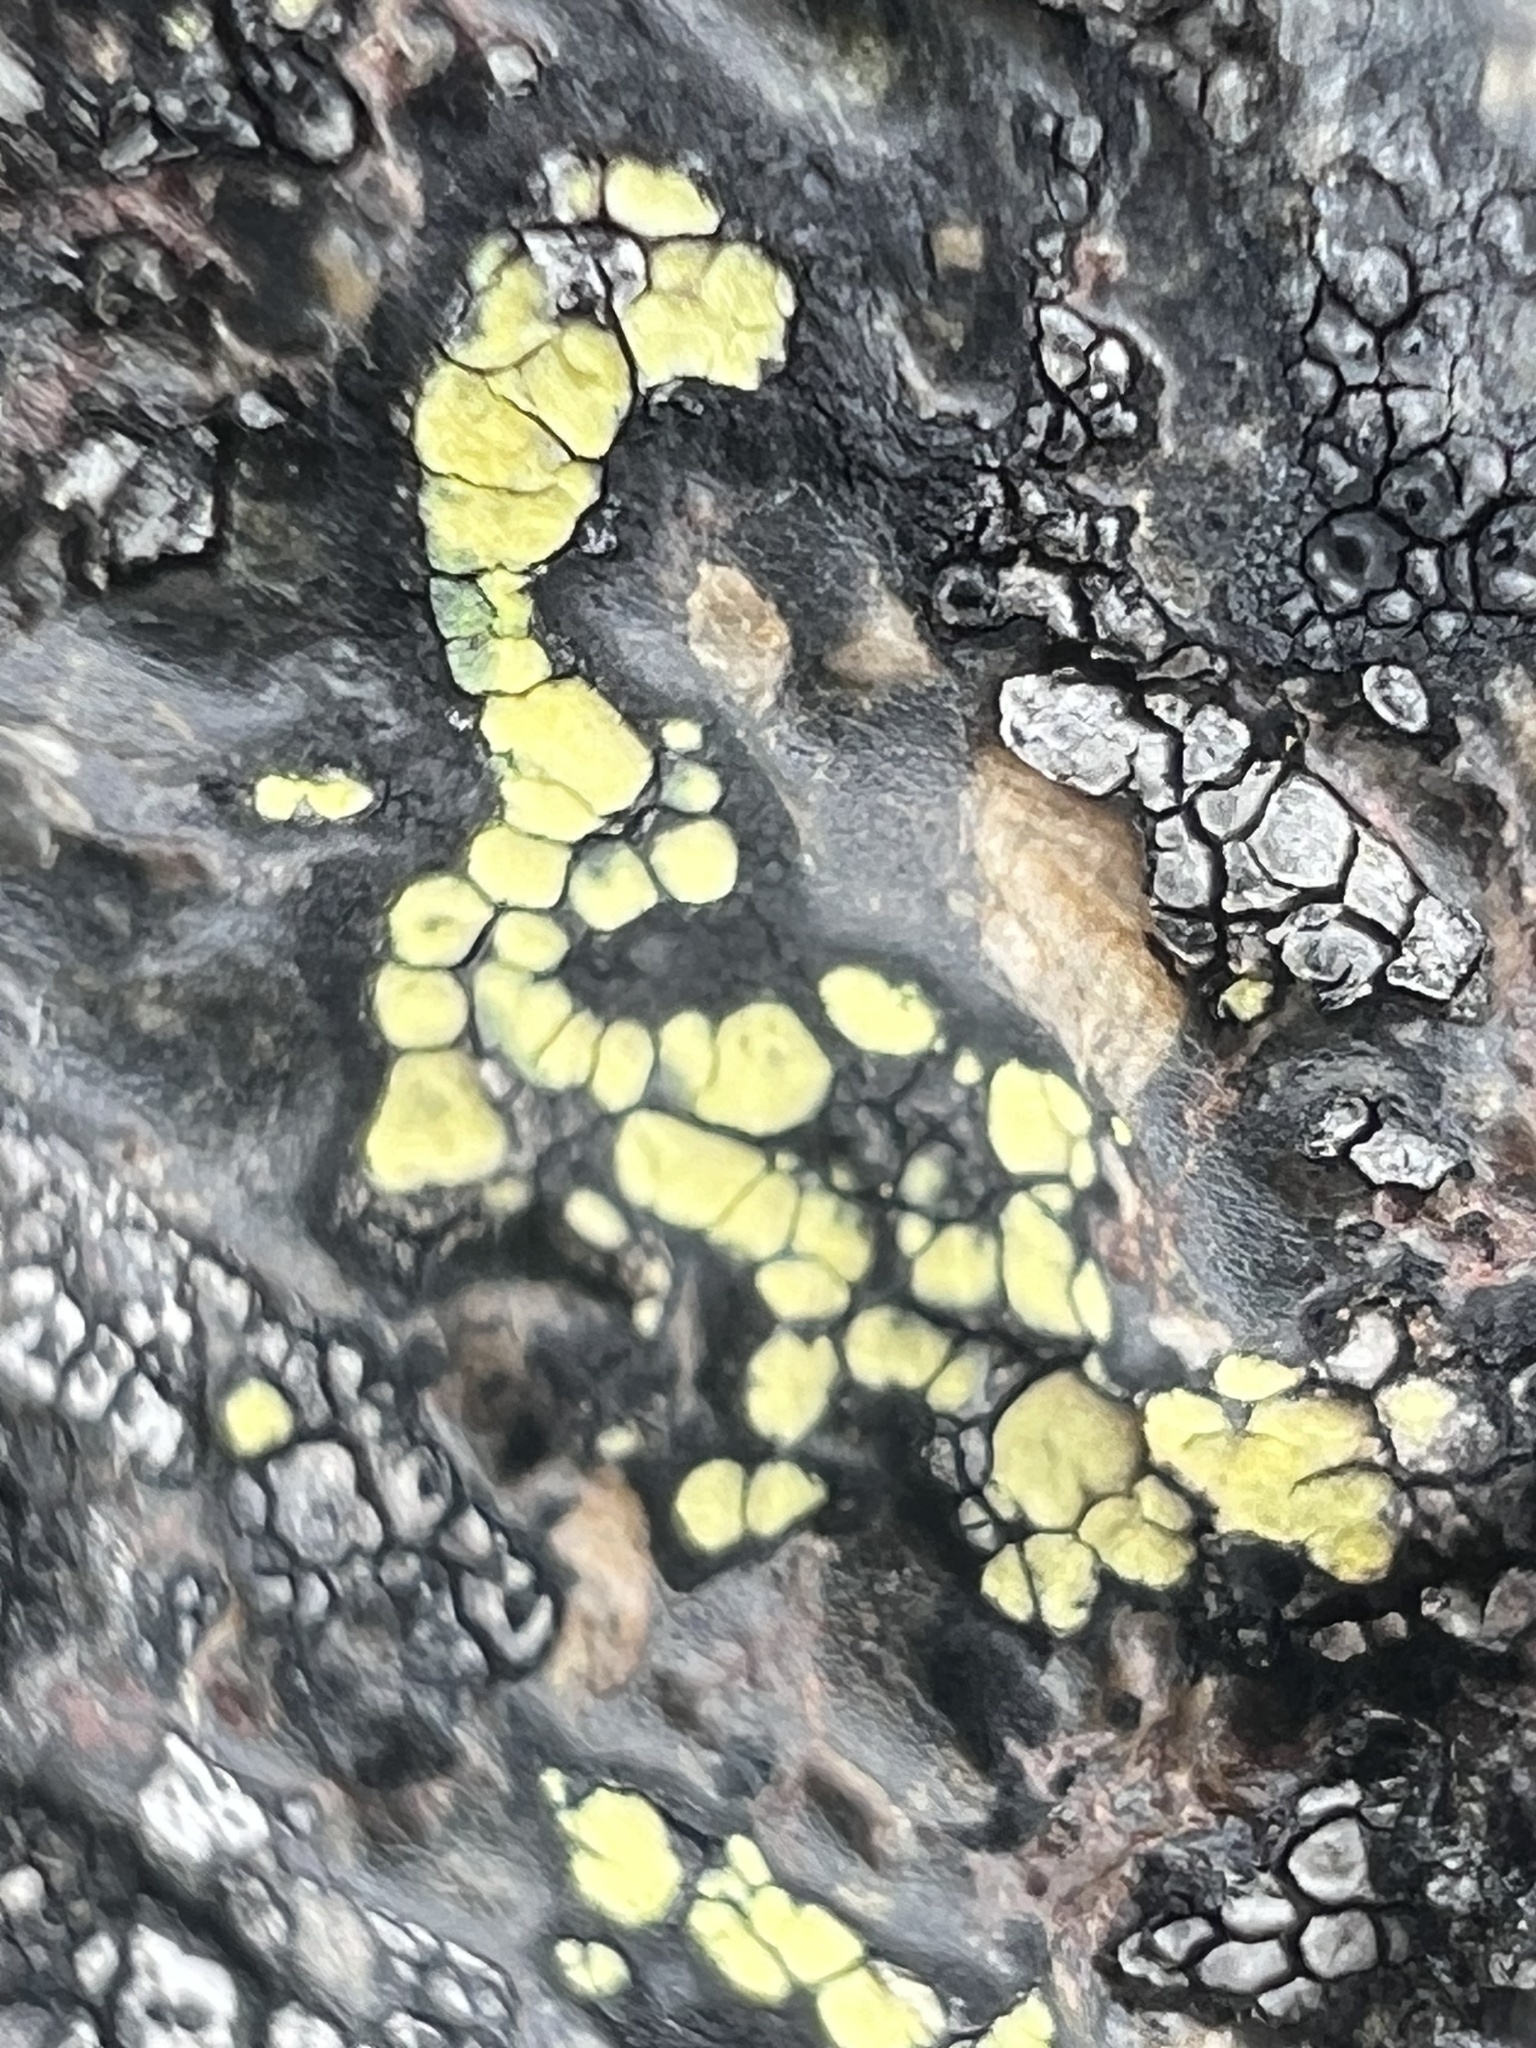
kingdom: Fungi
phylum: Ascomycota
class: Lecanoromycetes
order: Rhizocarpales
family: Rhizocarpaceae
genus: Rhizocarpon
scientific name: Rhizocarpon geographicum
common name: Yellow map lichen
